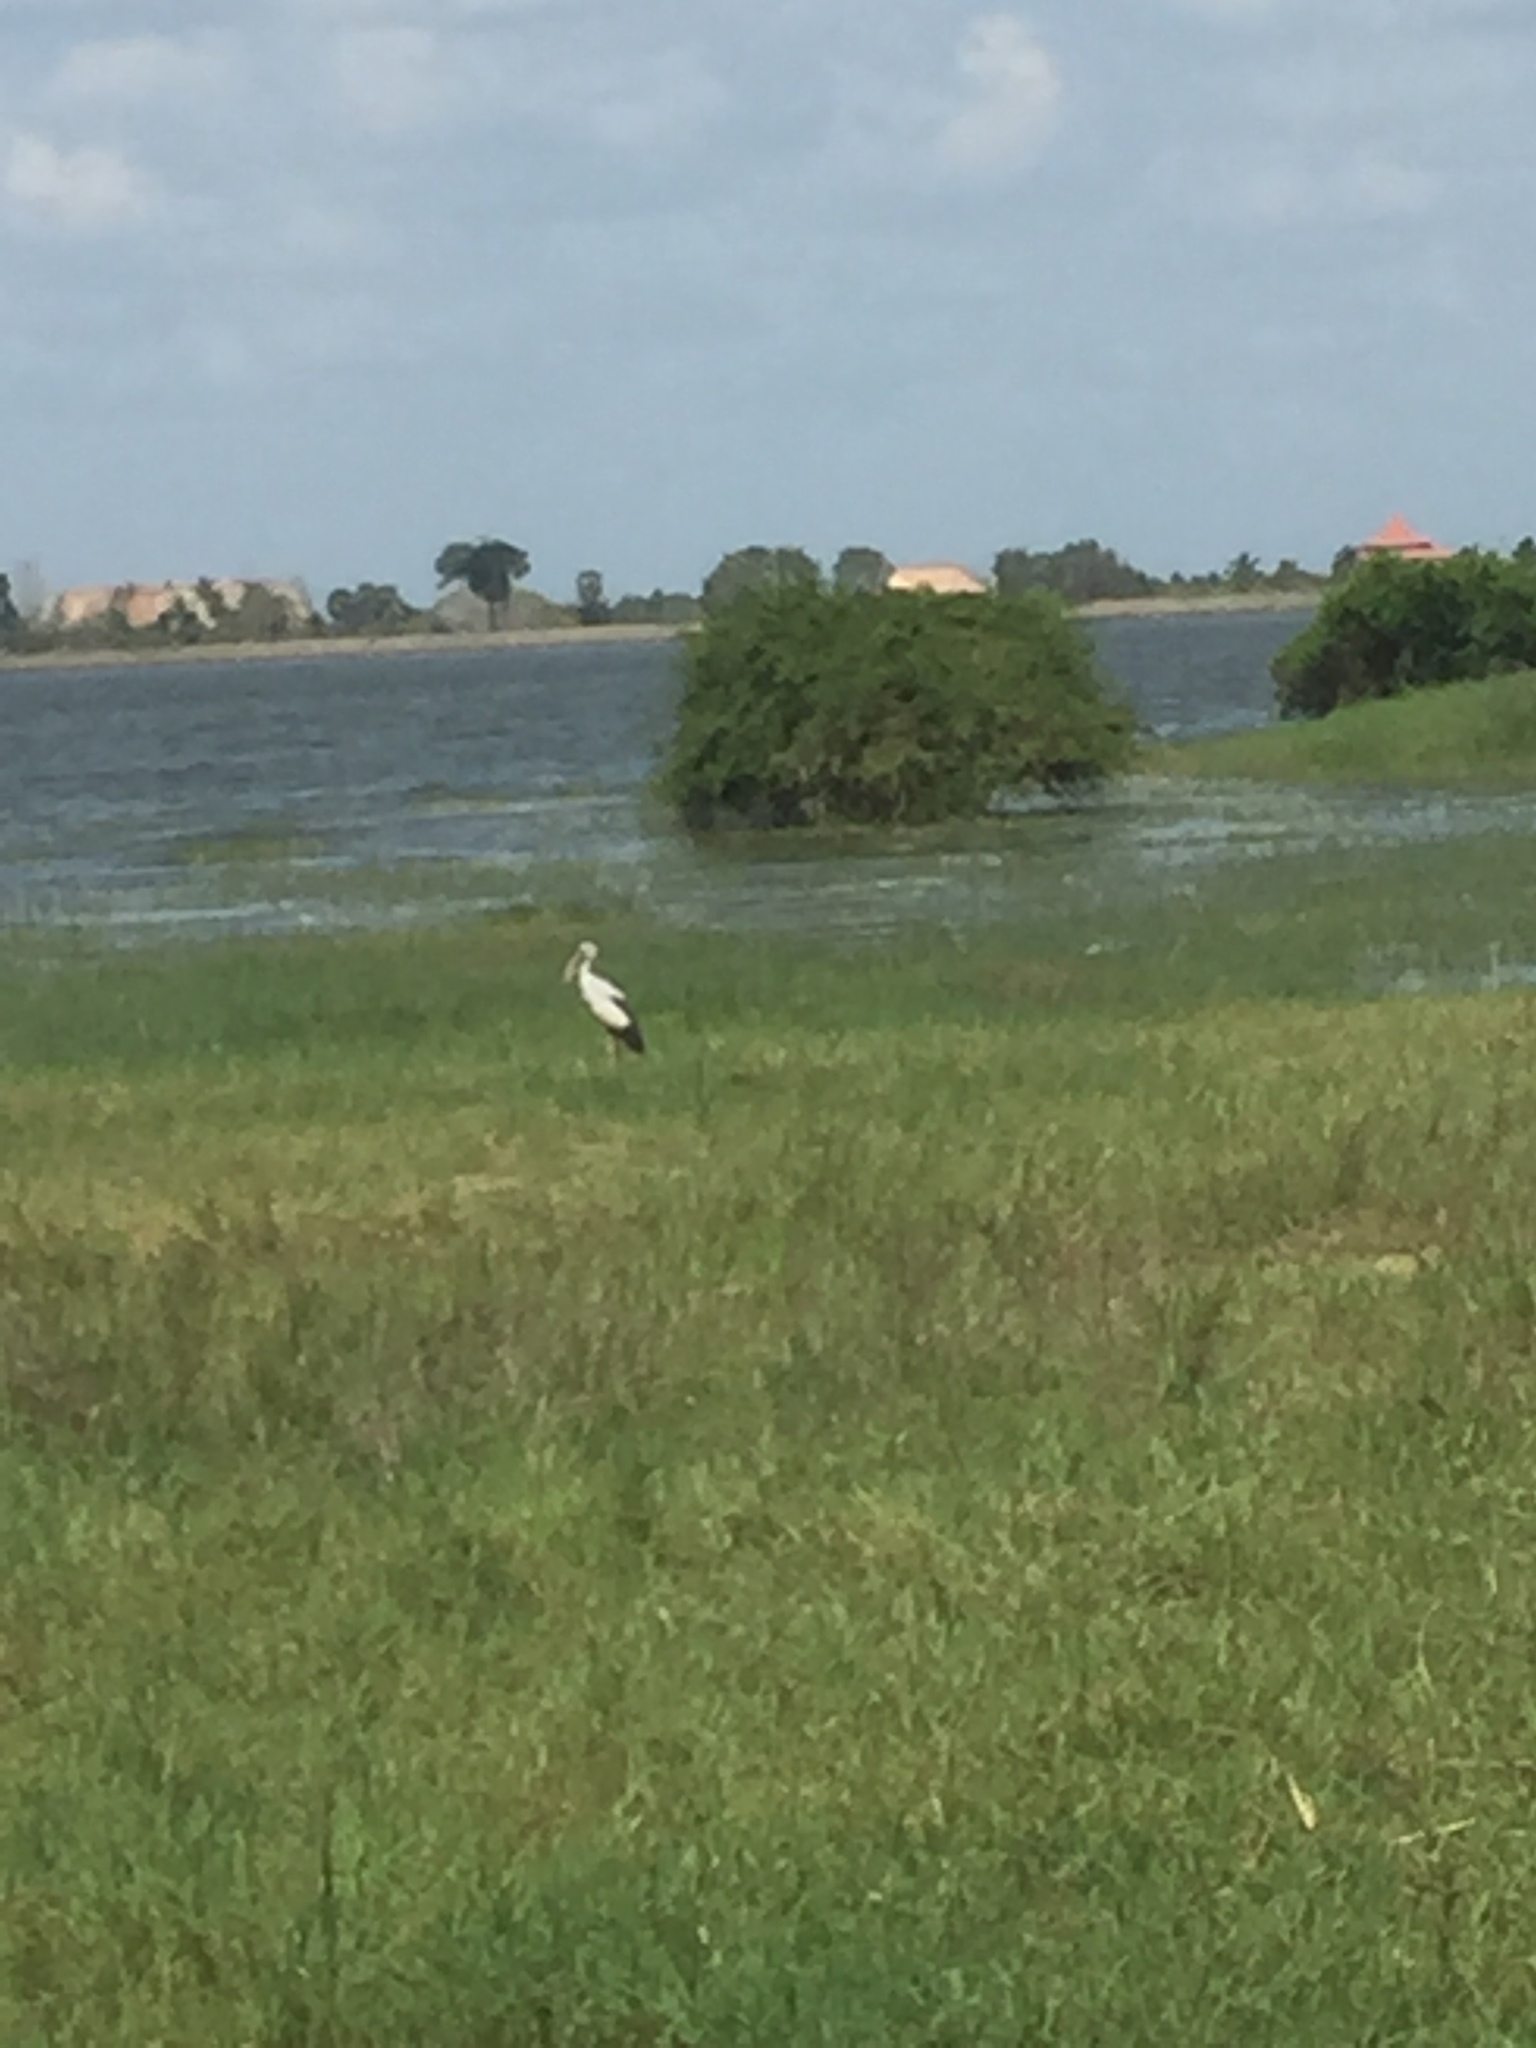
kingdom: Animalia
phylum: Chordata
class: Aves
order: Ciconiiformes
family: Ciconiidae
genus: Anastomus
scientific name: Anastomus oscitans
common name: Asian openbill
